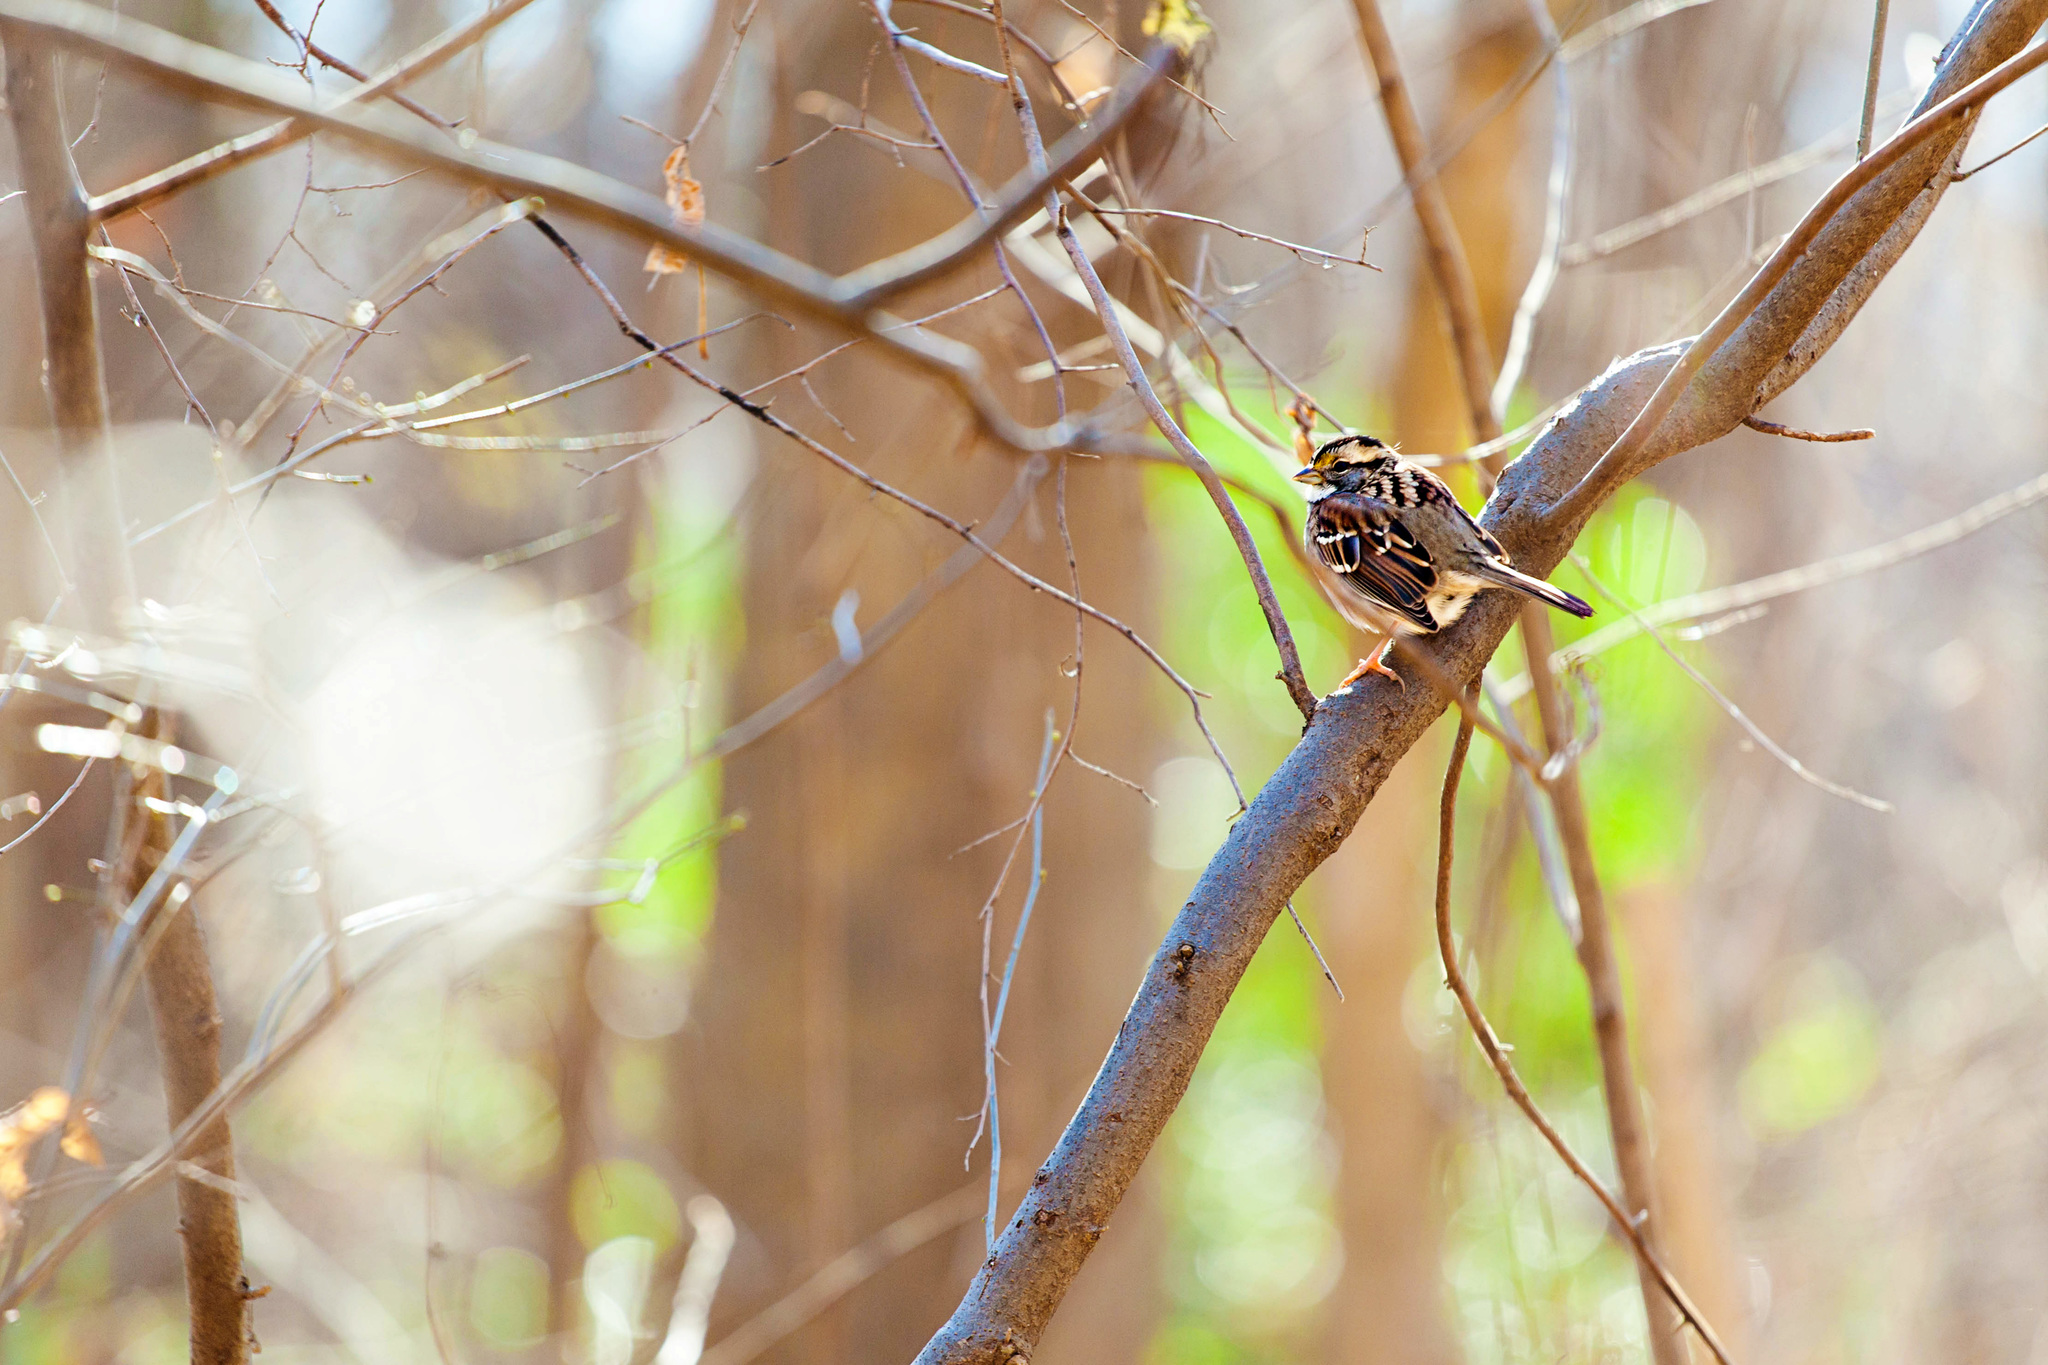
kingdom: Animalia
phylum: Chordata
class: Aves
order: Passeriformes
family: Passerellidae
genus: Zonotrichia
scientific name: Zonotrichia albicollis
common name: White-throated sparrow
